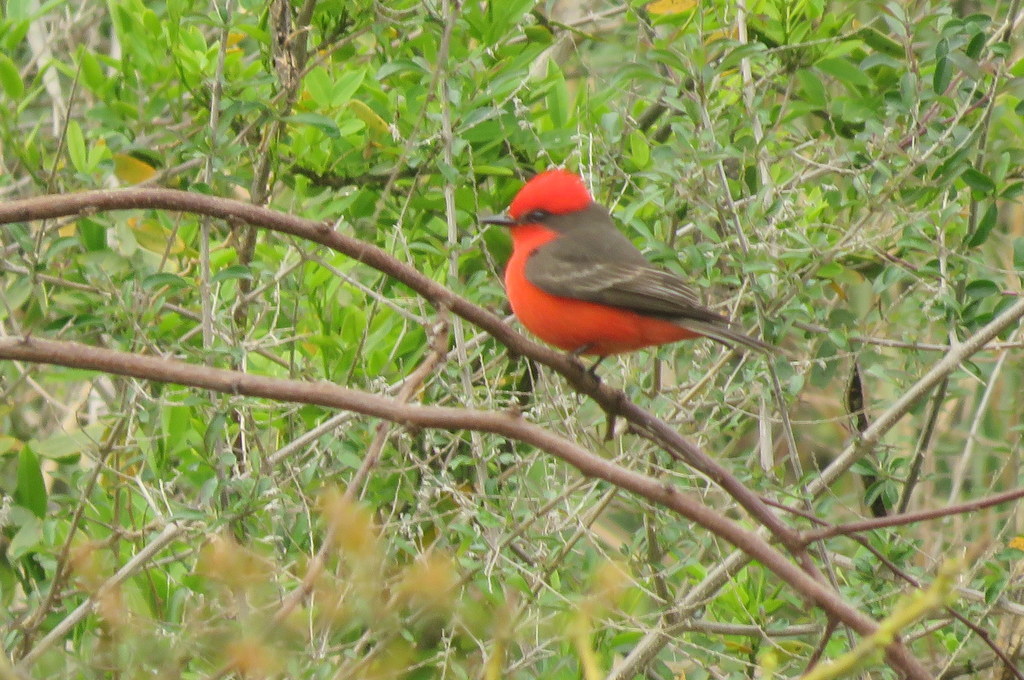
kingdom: Animalia
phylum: Chordata
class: Aves
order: Passeriformes
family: Tyrannidae
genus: Pyrocephalus
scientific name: Pyrocephalus rubinus
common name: Vermilion flycatcher
